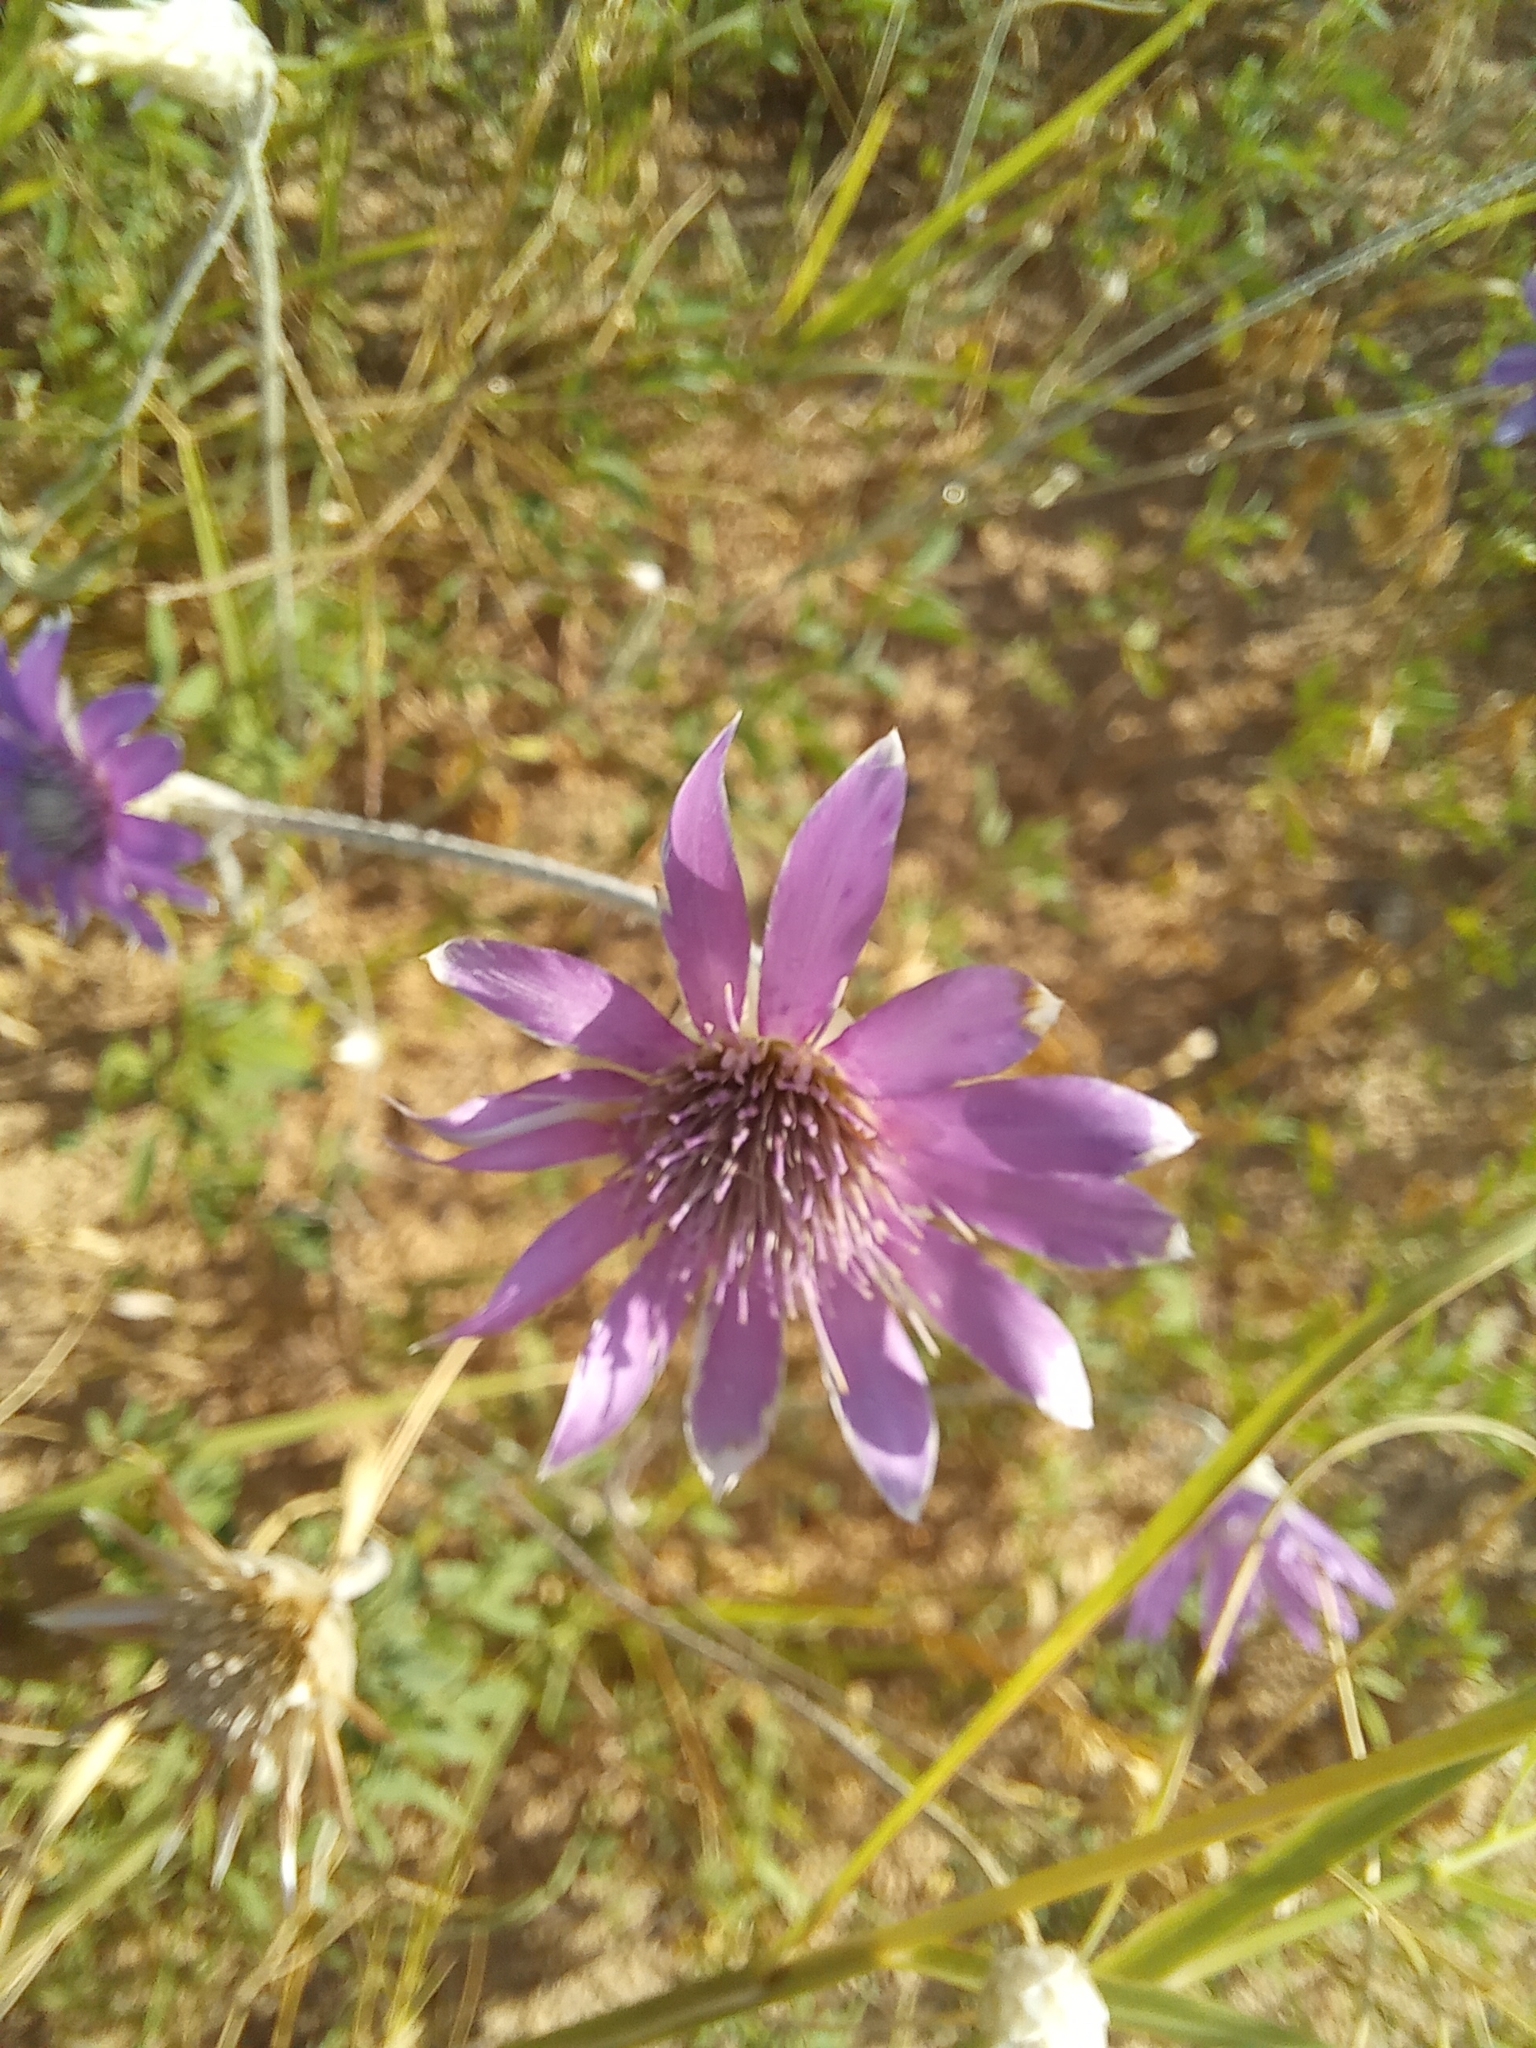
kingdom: Plantae
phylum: Tracheophyta
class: Magnoliopsida
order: Asterales
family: Asteraceae
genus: Xeranthemum
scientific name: Xeranthemum annuum
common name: Immortelle
